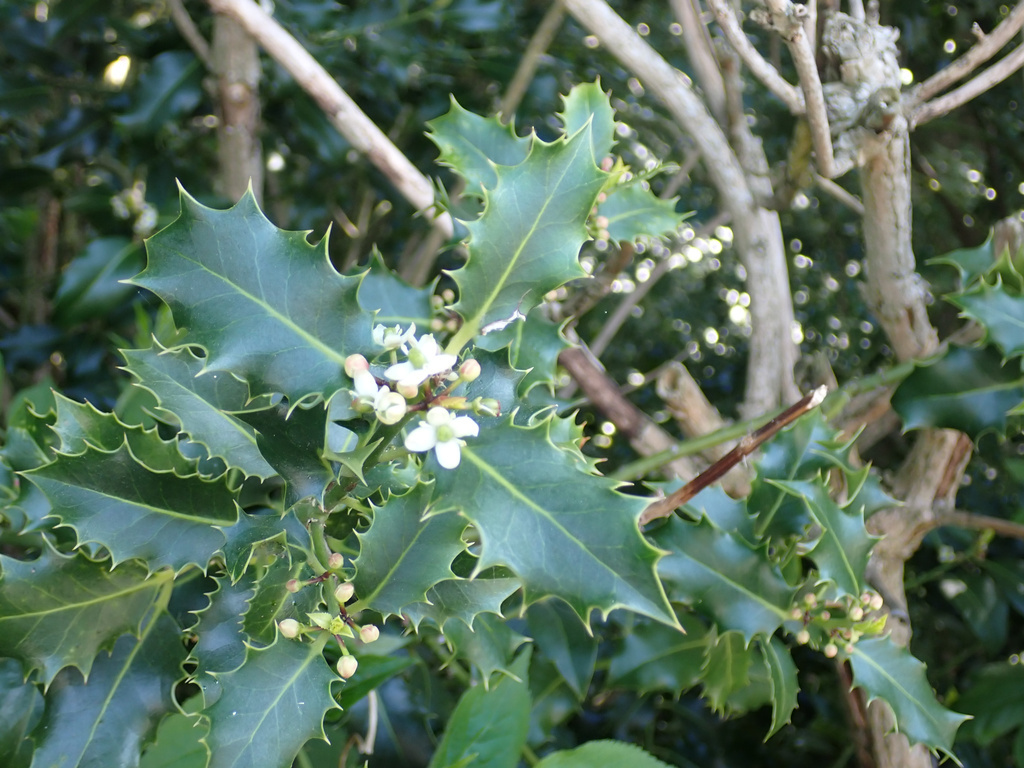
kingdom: Plantae
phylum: Tracheophyta
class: Magnoliopsida
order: Aquifoliales
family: Aquifoliaceae
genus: Ilex
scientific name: Ilex aquifolium
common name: English holly
